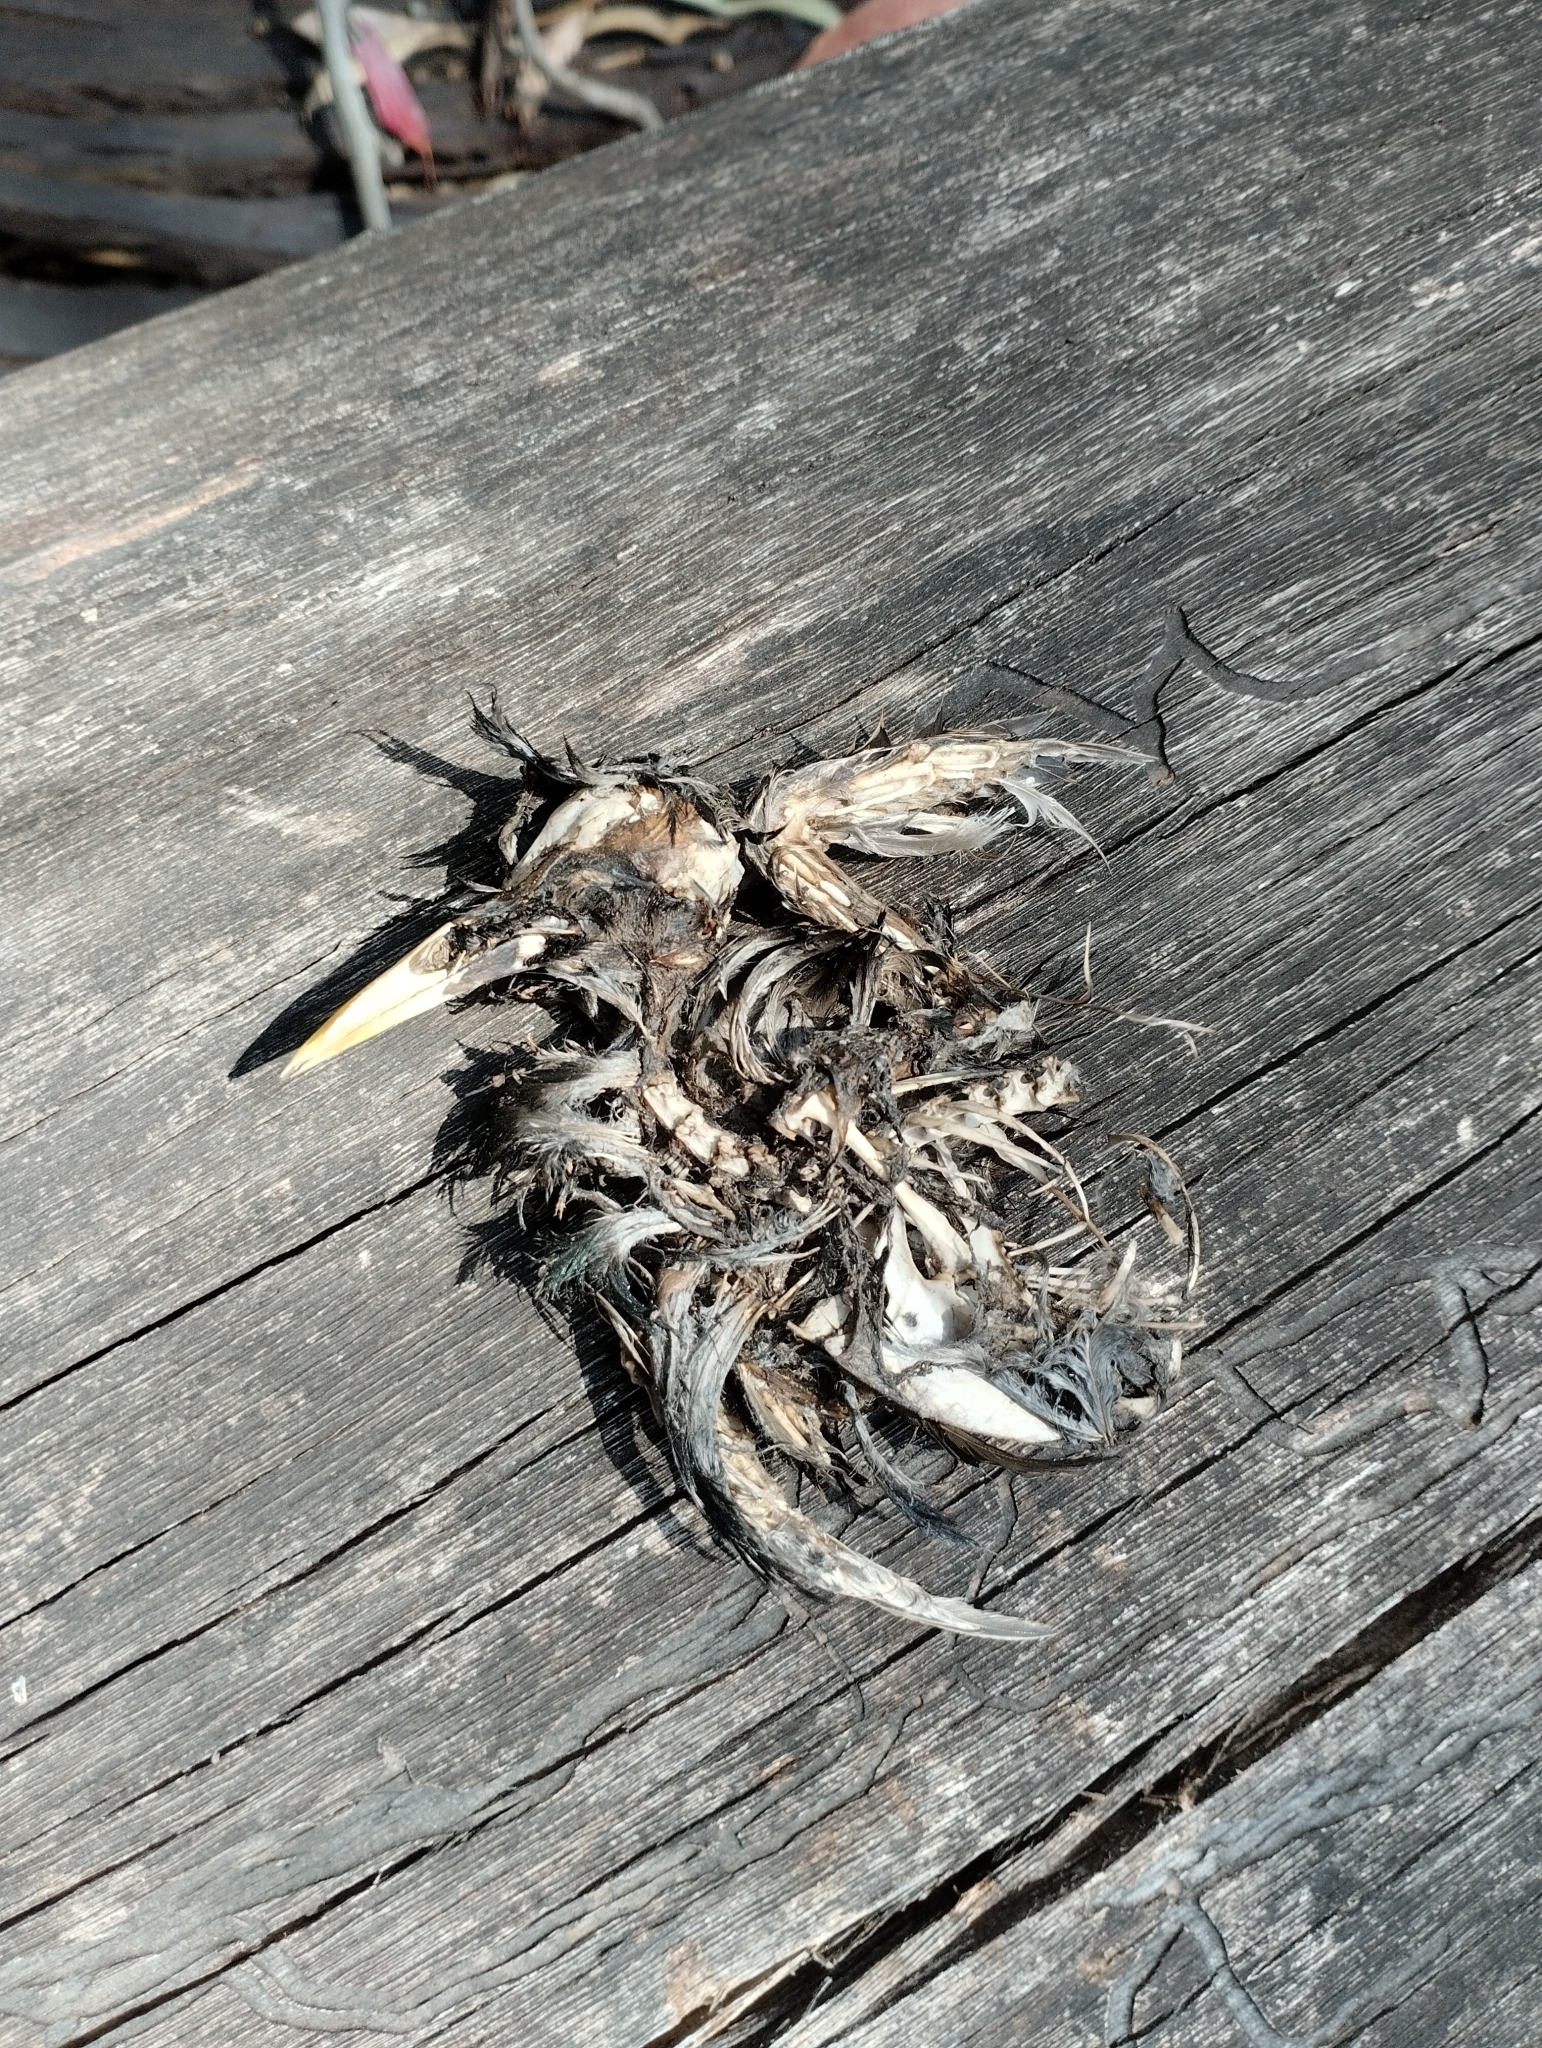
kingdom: Animalia
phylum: Chordata
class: Aves
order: Passeriformes
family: Sturnidae
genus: Sturnus
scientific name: Sturnus vulgaris
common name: Common starling
